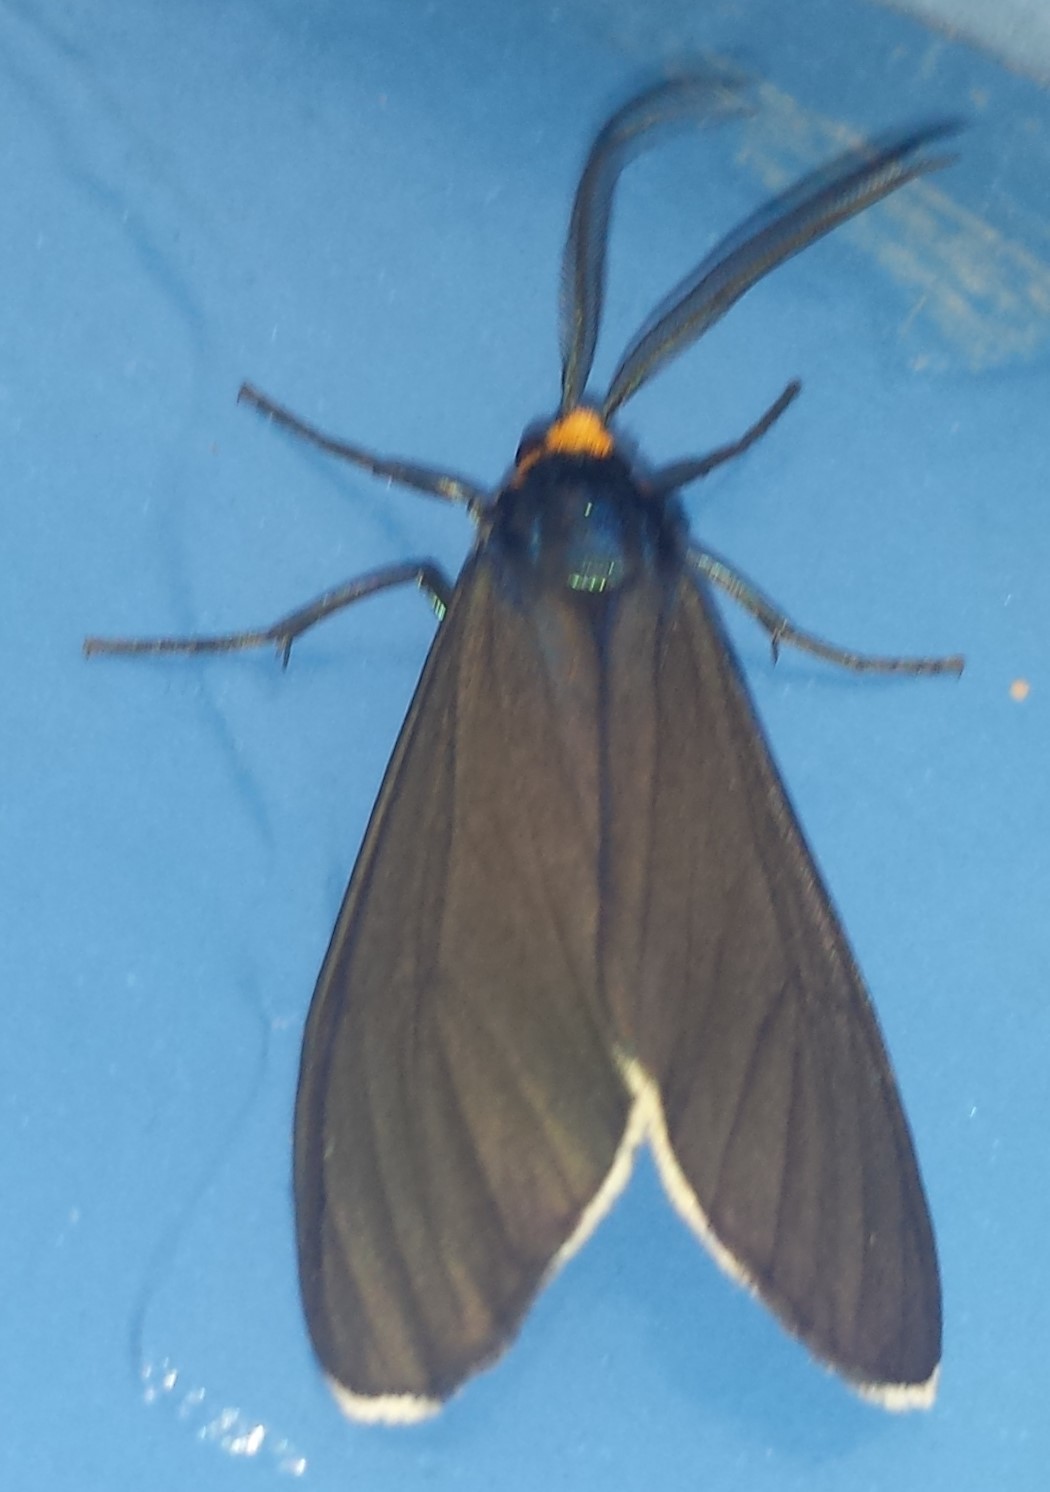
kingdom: Animalia
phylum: Arthropoda
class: Insecta
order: Lepidoptera
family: Erebidae
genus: Ctenucha
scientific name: Ctenucha virginica
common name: Virginia ctenucha moth
